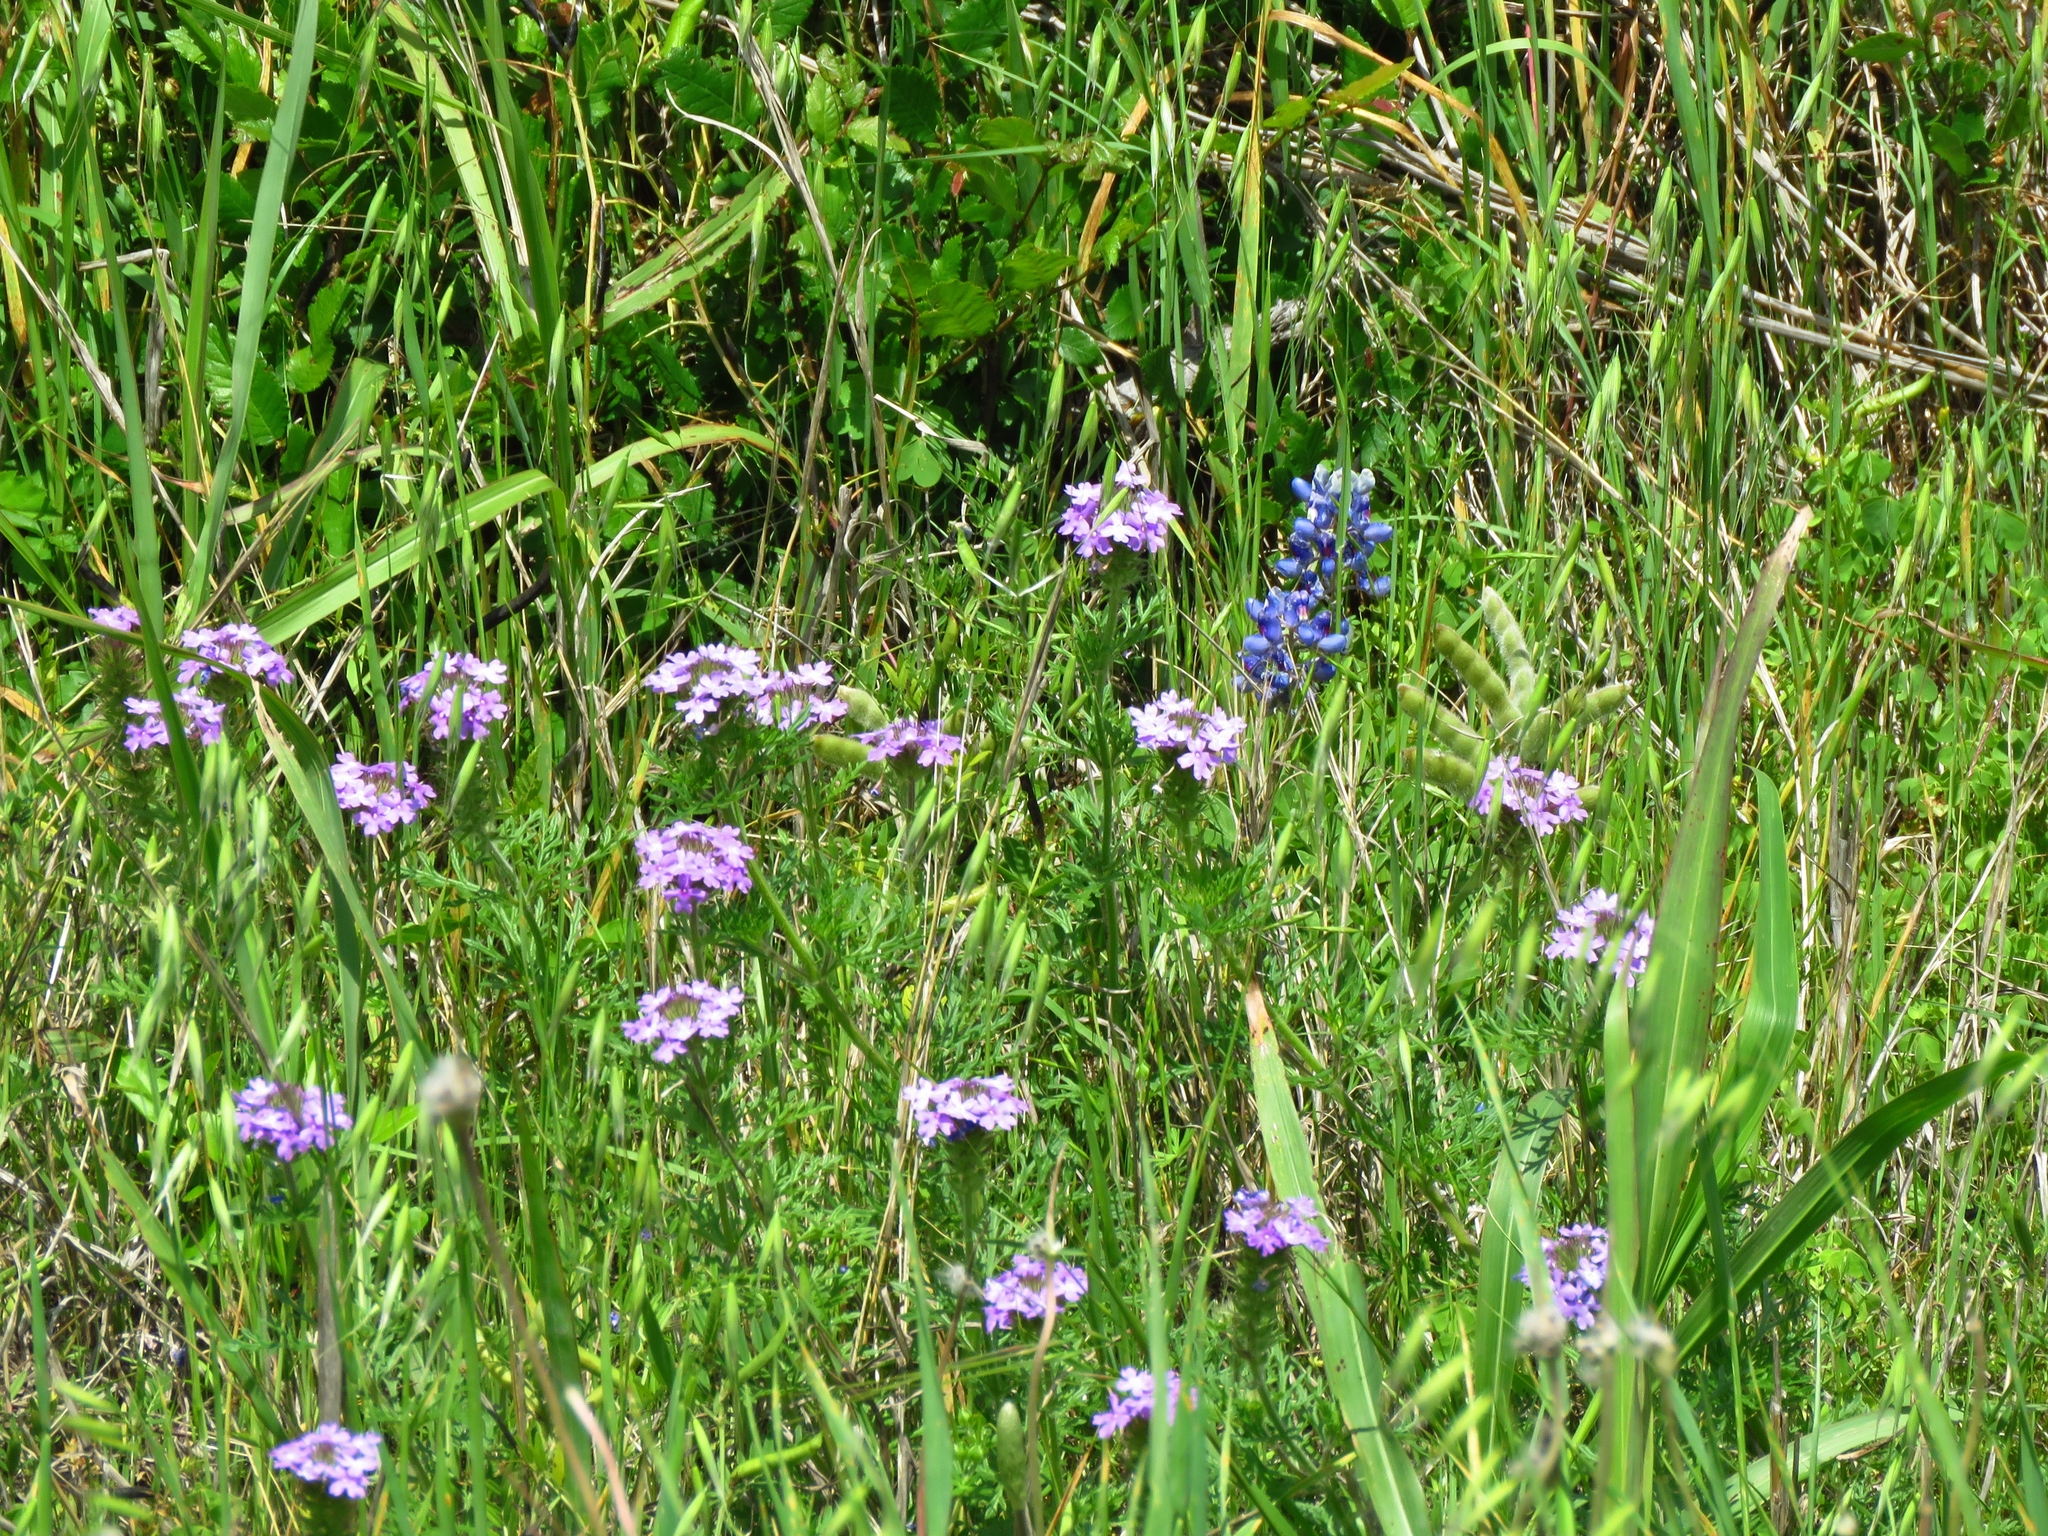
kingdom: Plantae
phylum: Tracheophyta
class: Magnoliopsida
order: Lamiales
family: Verbenaceae
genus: Verbena
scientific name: Verbena bipinnatifida
